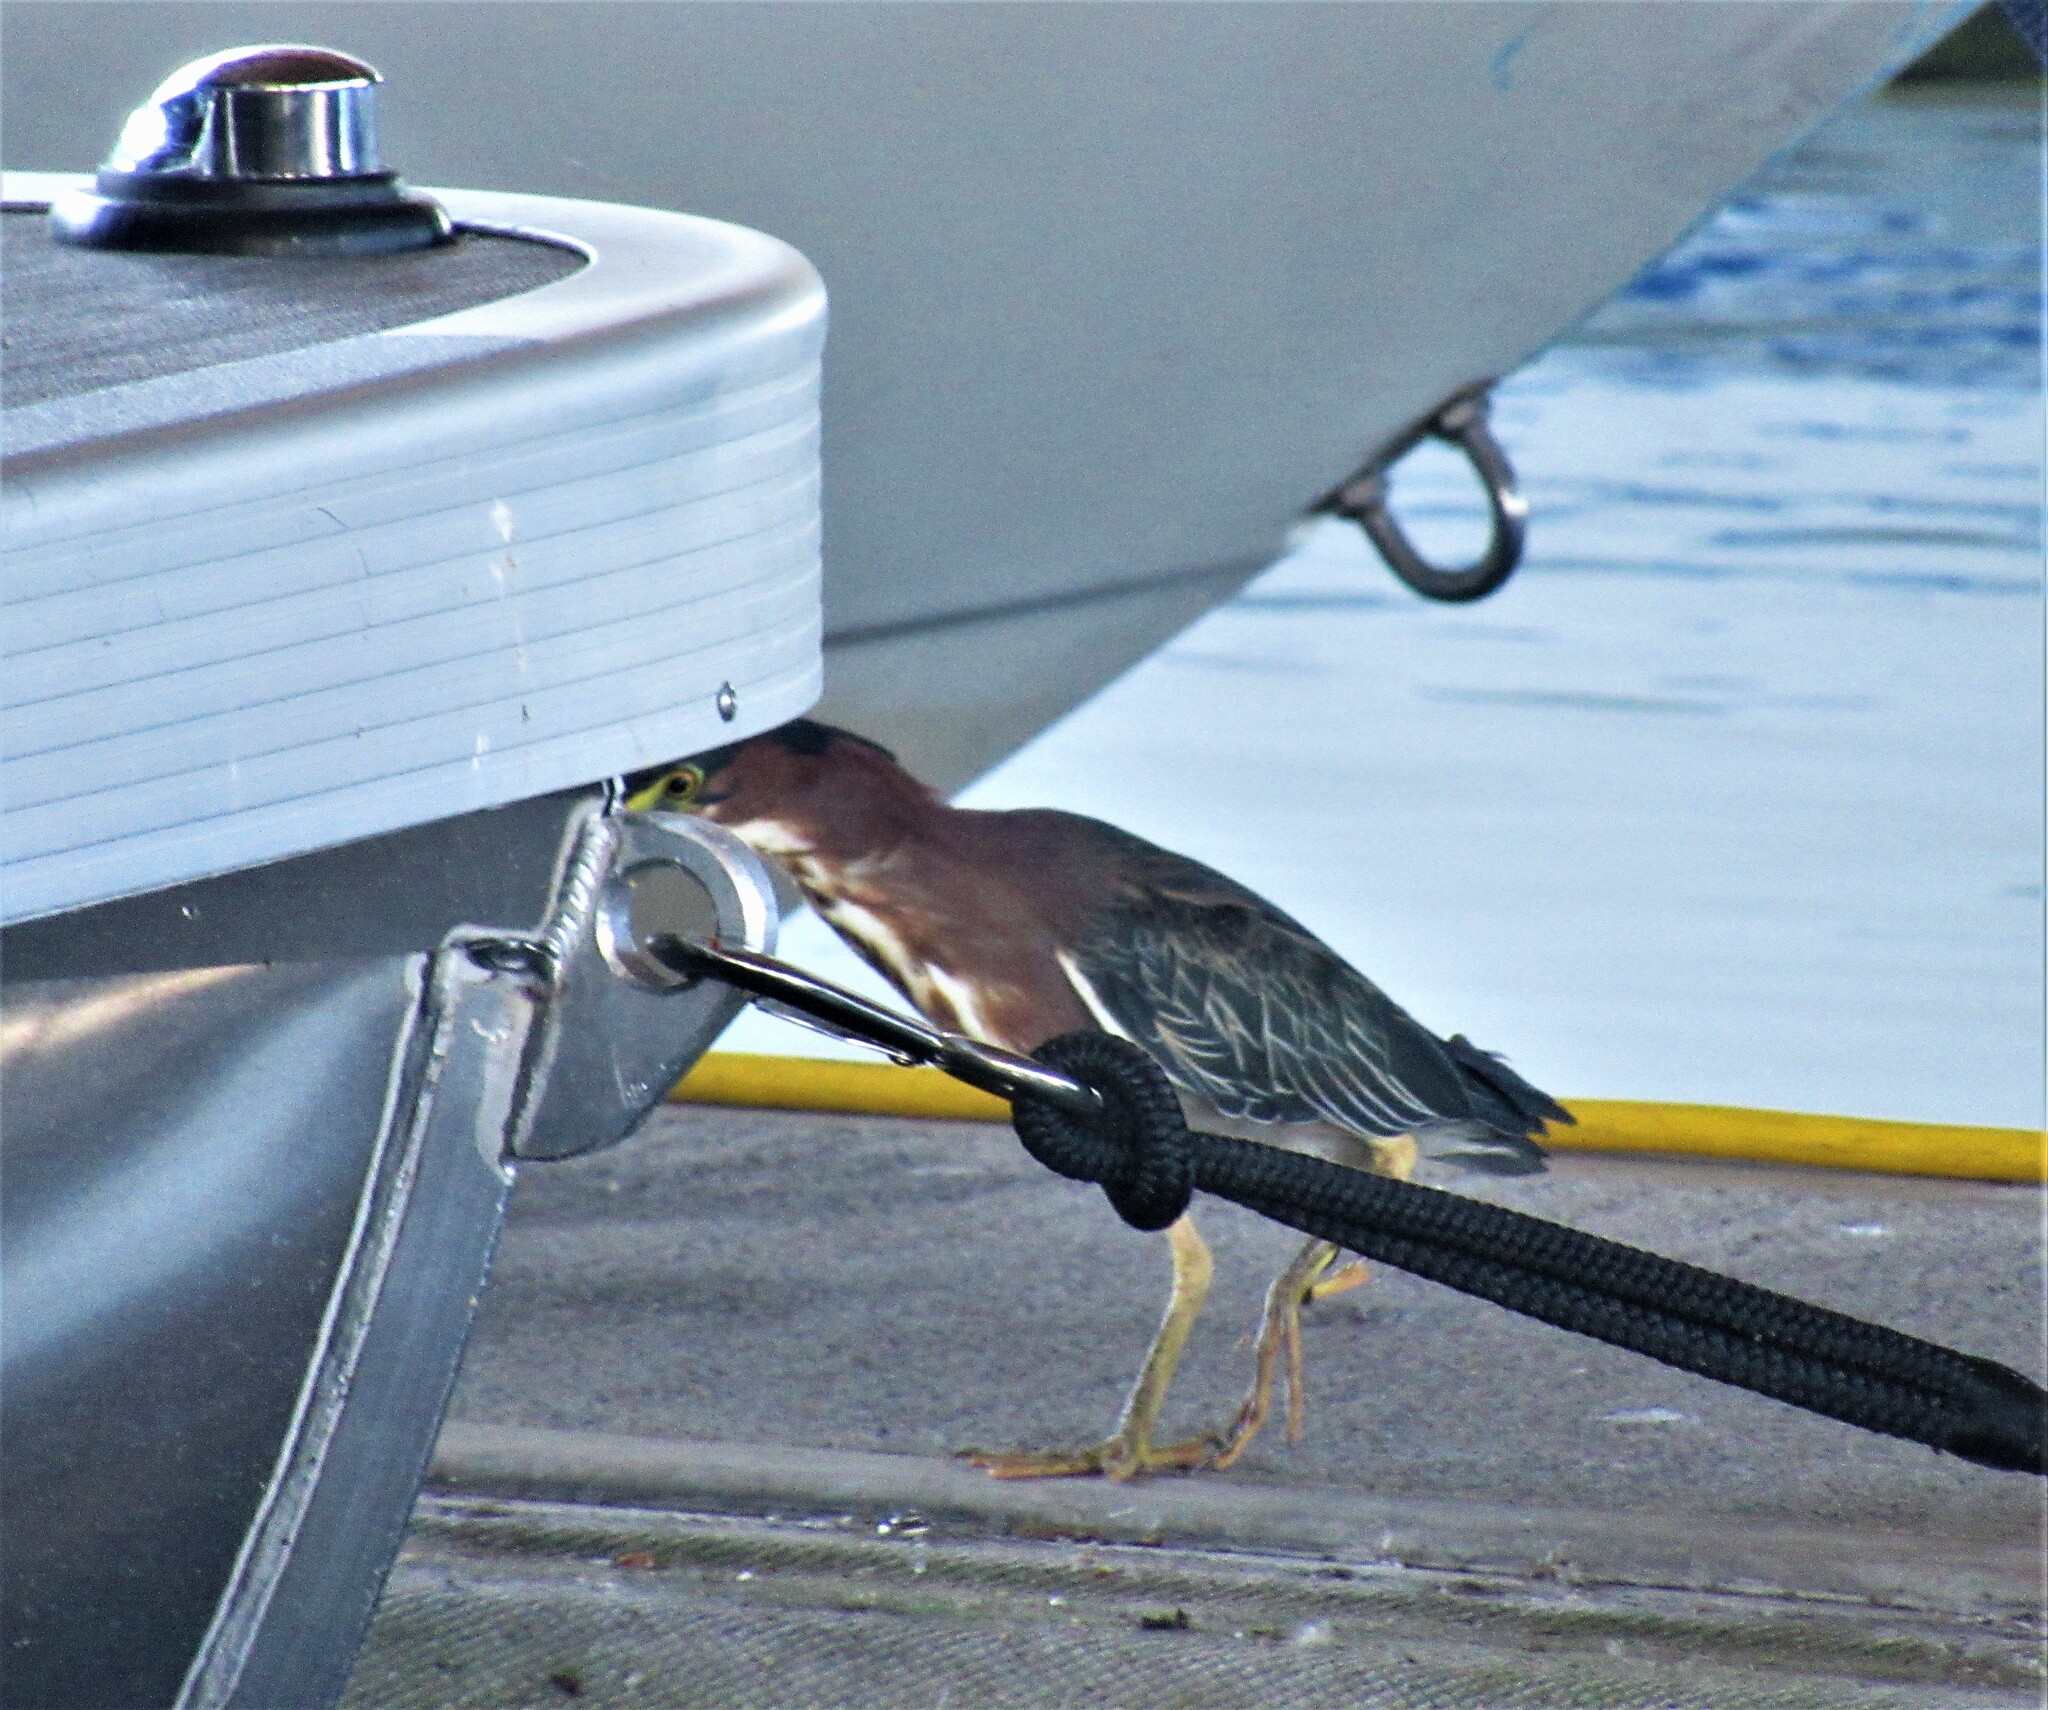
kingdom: Animalia
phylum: Chordata
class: Aves
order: Pelecaniformes
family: Ardeidae
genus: Butorides
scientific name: Butorides virescens
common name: Green heron
